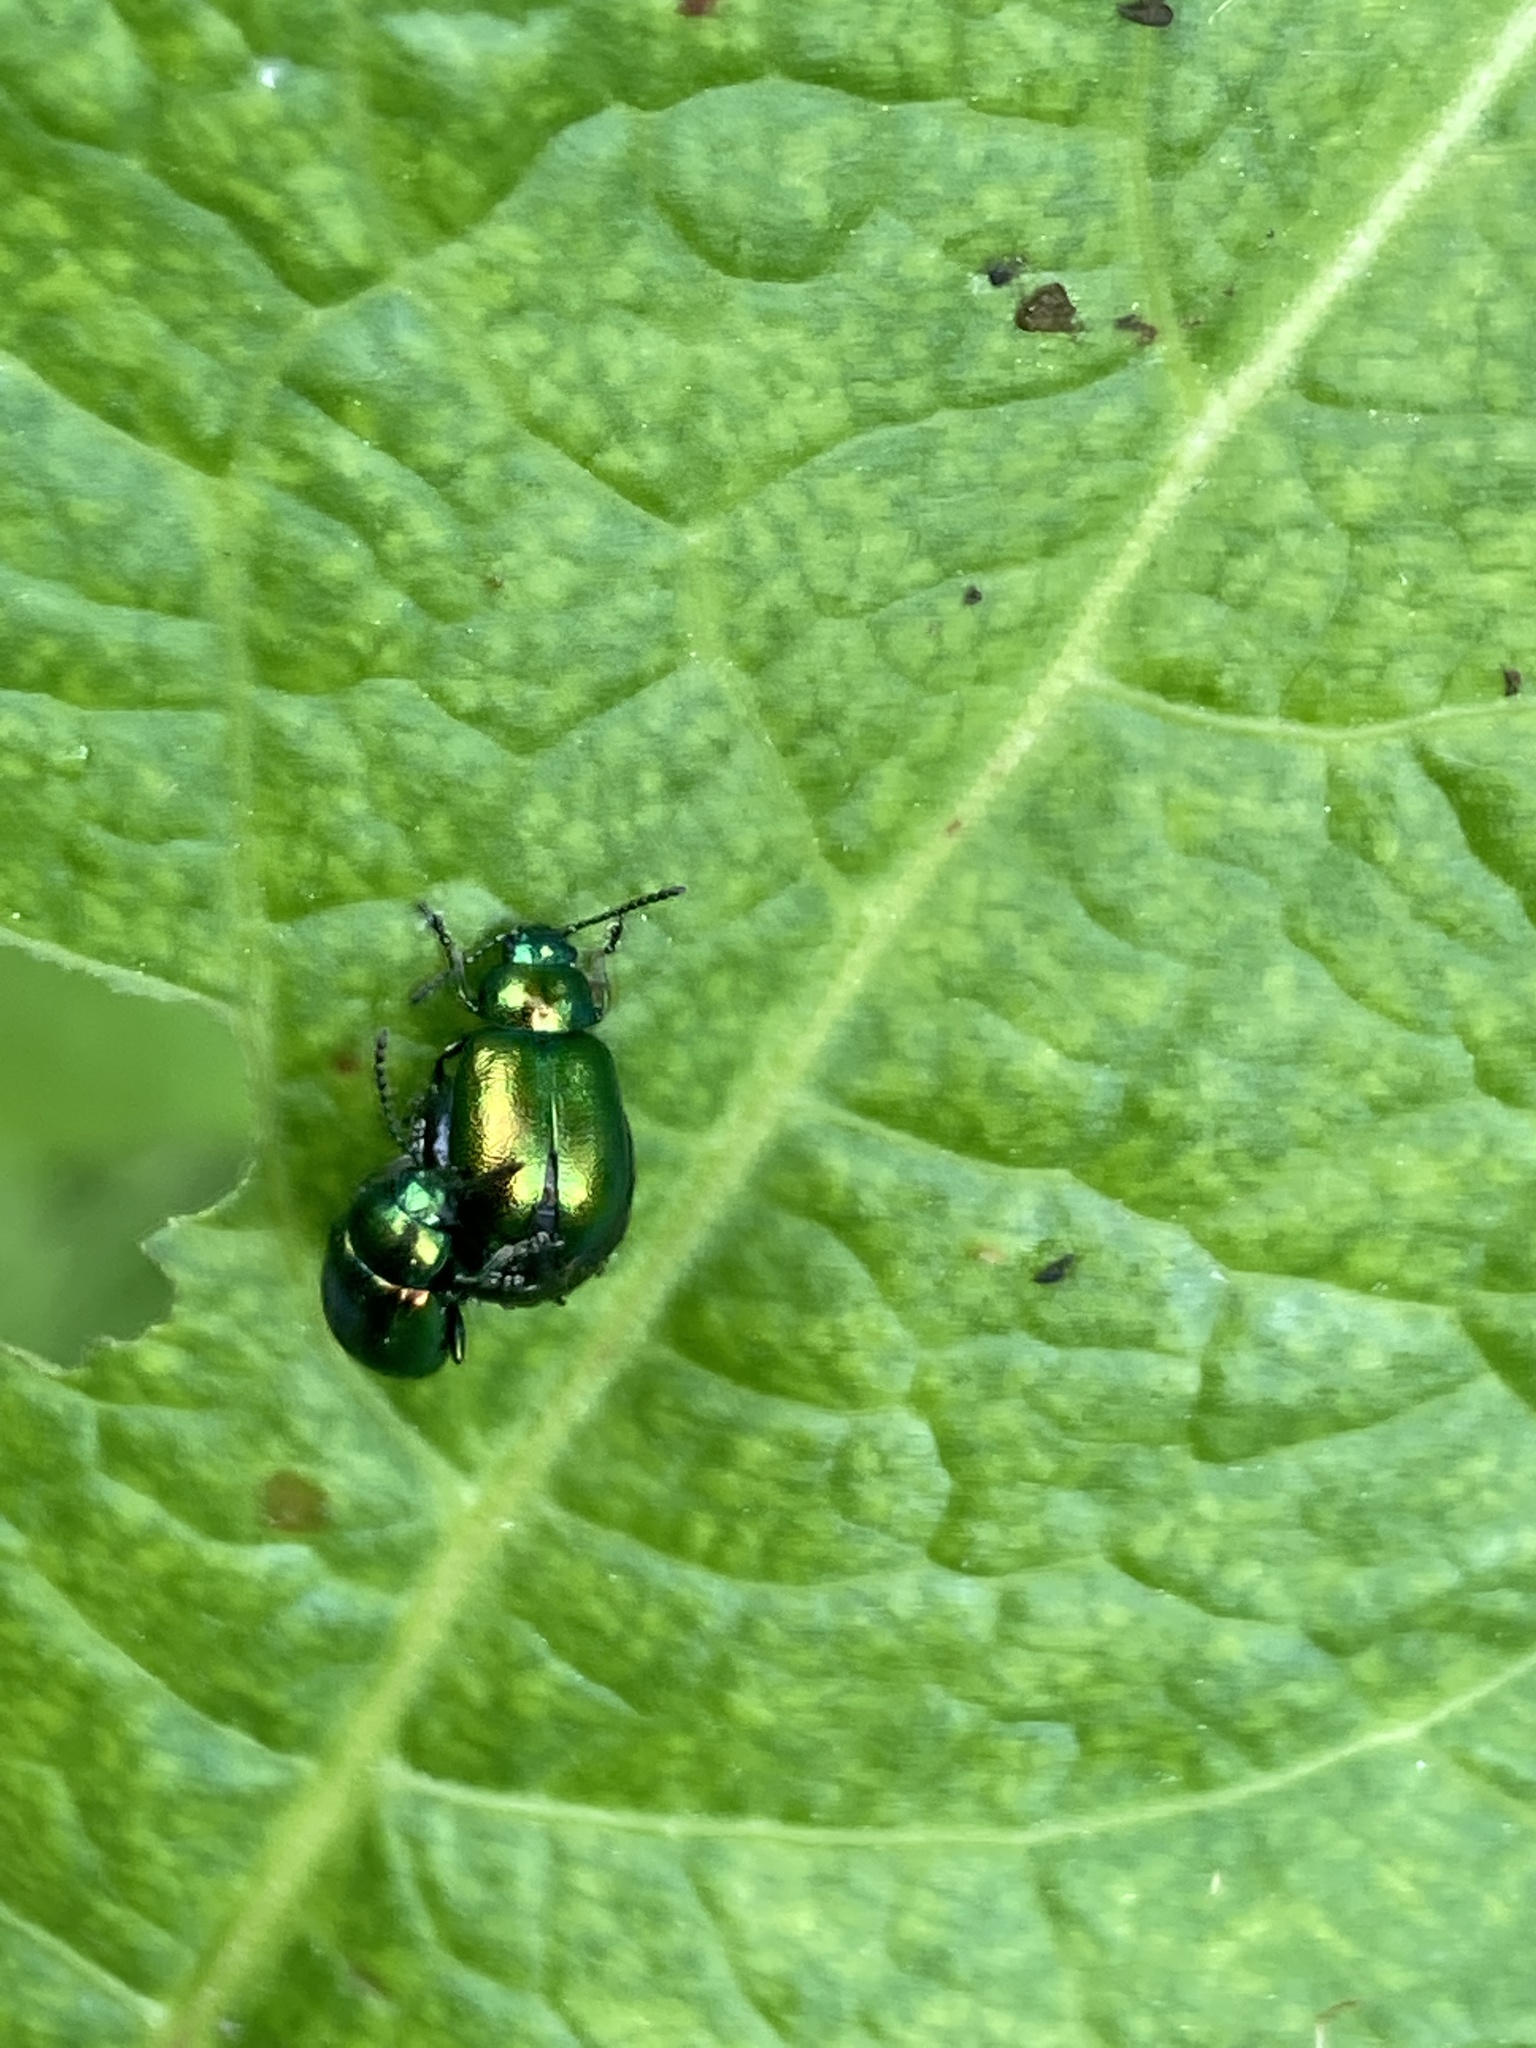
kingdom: Animalia
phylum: Arthropoda
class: Insecta
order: Coleoptera
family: Chrysomelidae
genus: Gastrophysa
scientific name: Gastrophysa viridula
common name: Green dock beetle
